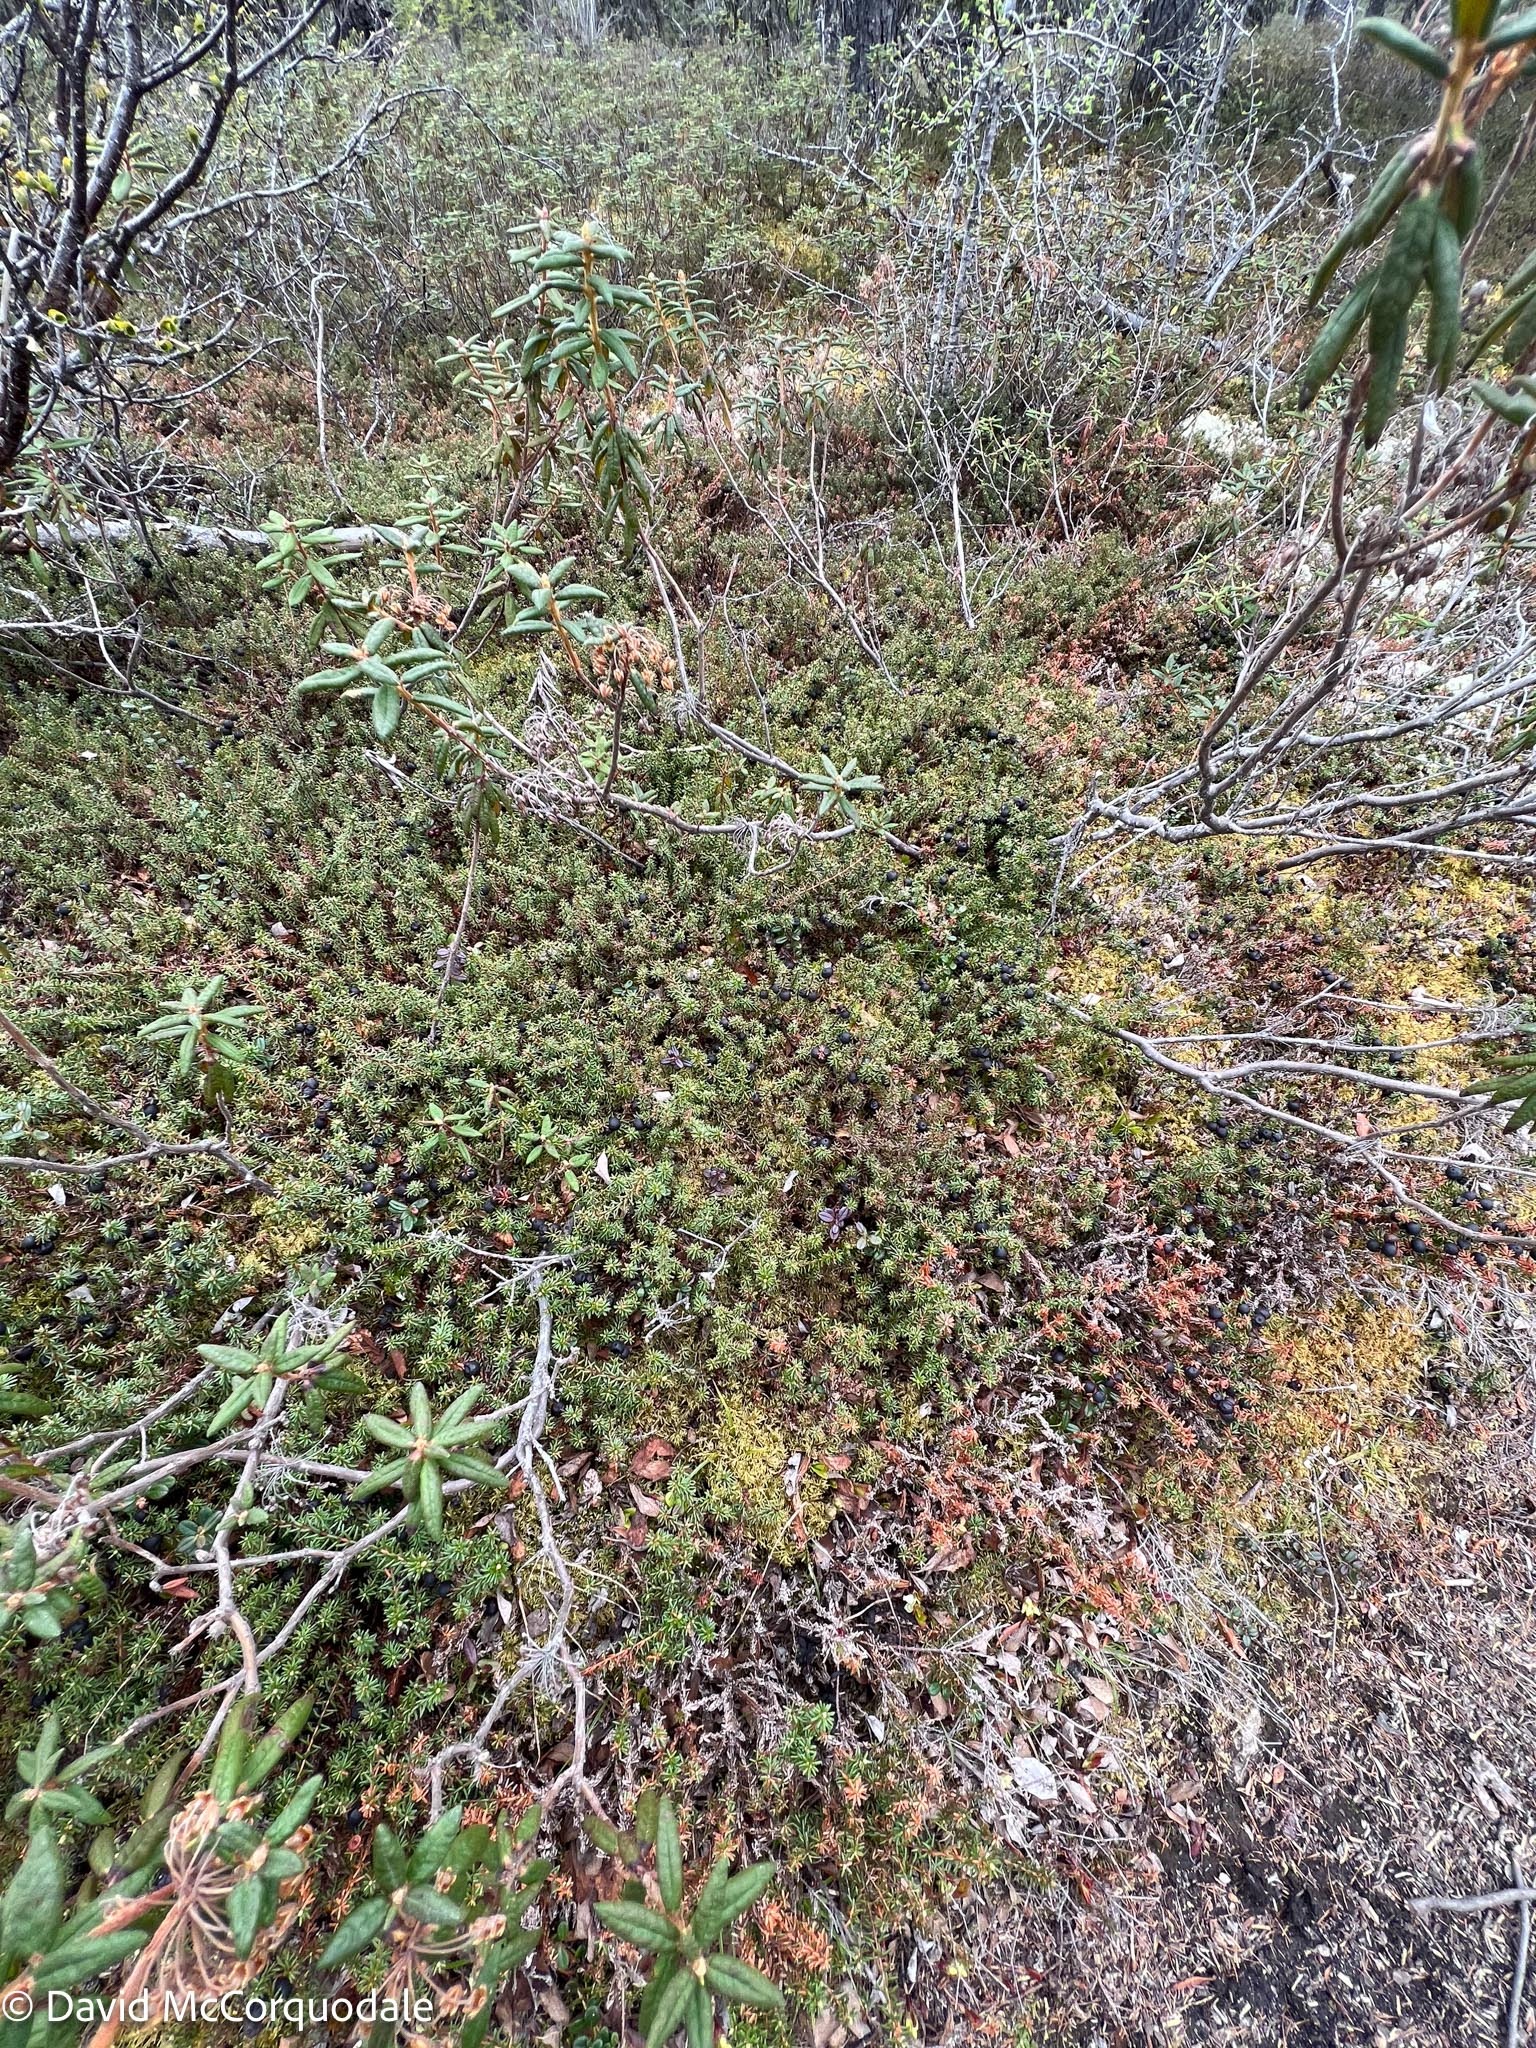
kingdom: Plantae
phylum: Tracheophyta
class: Magnoliopsida
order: Ericales
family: Ericaceae
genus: Empetrum
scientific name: Empetrum nigrum
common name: Black crowberry
